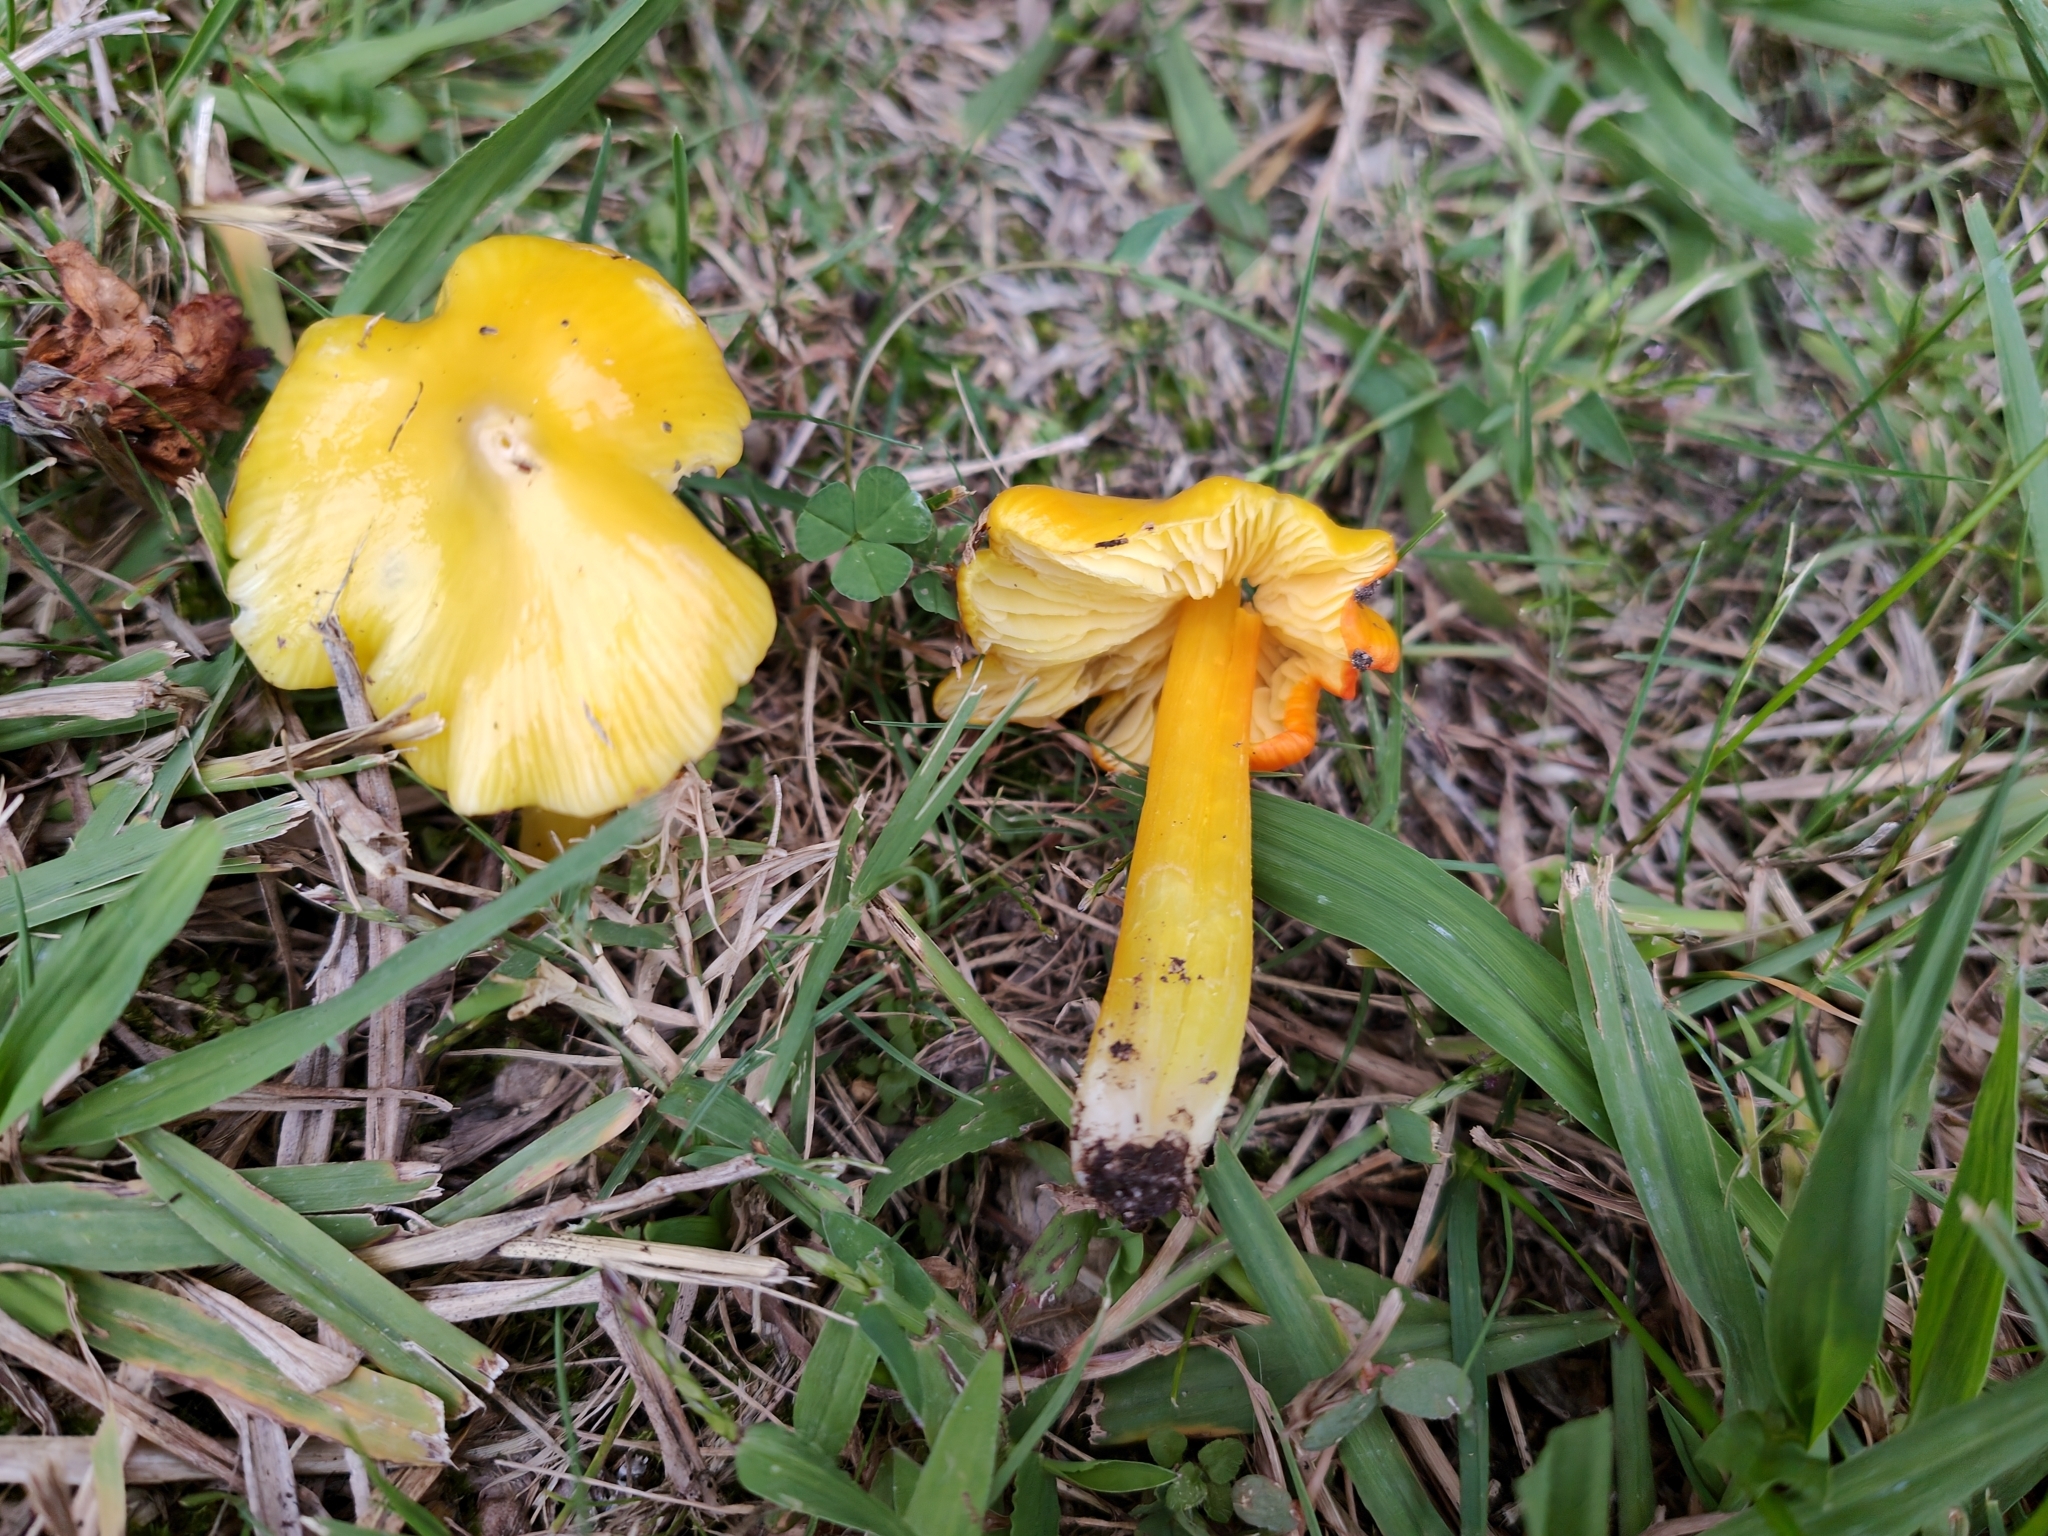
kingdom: Fungi
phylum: Basidiomycota
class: Agaricomycetes
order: Agaricales
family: Hygrophoraceae
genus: Hygrocybe
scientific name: Hygrocybe acutoconica
